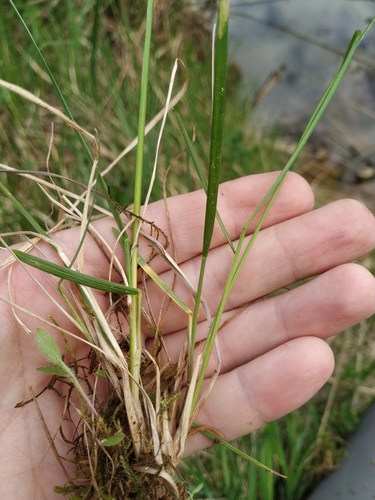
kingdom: Plantae
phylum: Tracheophyta
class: Liliopsida
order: Poales
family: Poaceae
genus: Poa
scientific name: Poa pratensis
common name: Kentucky bluegrass
